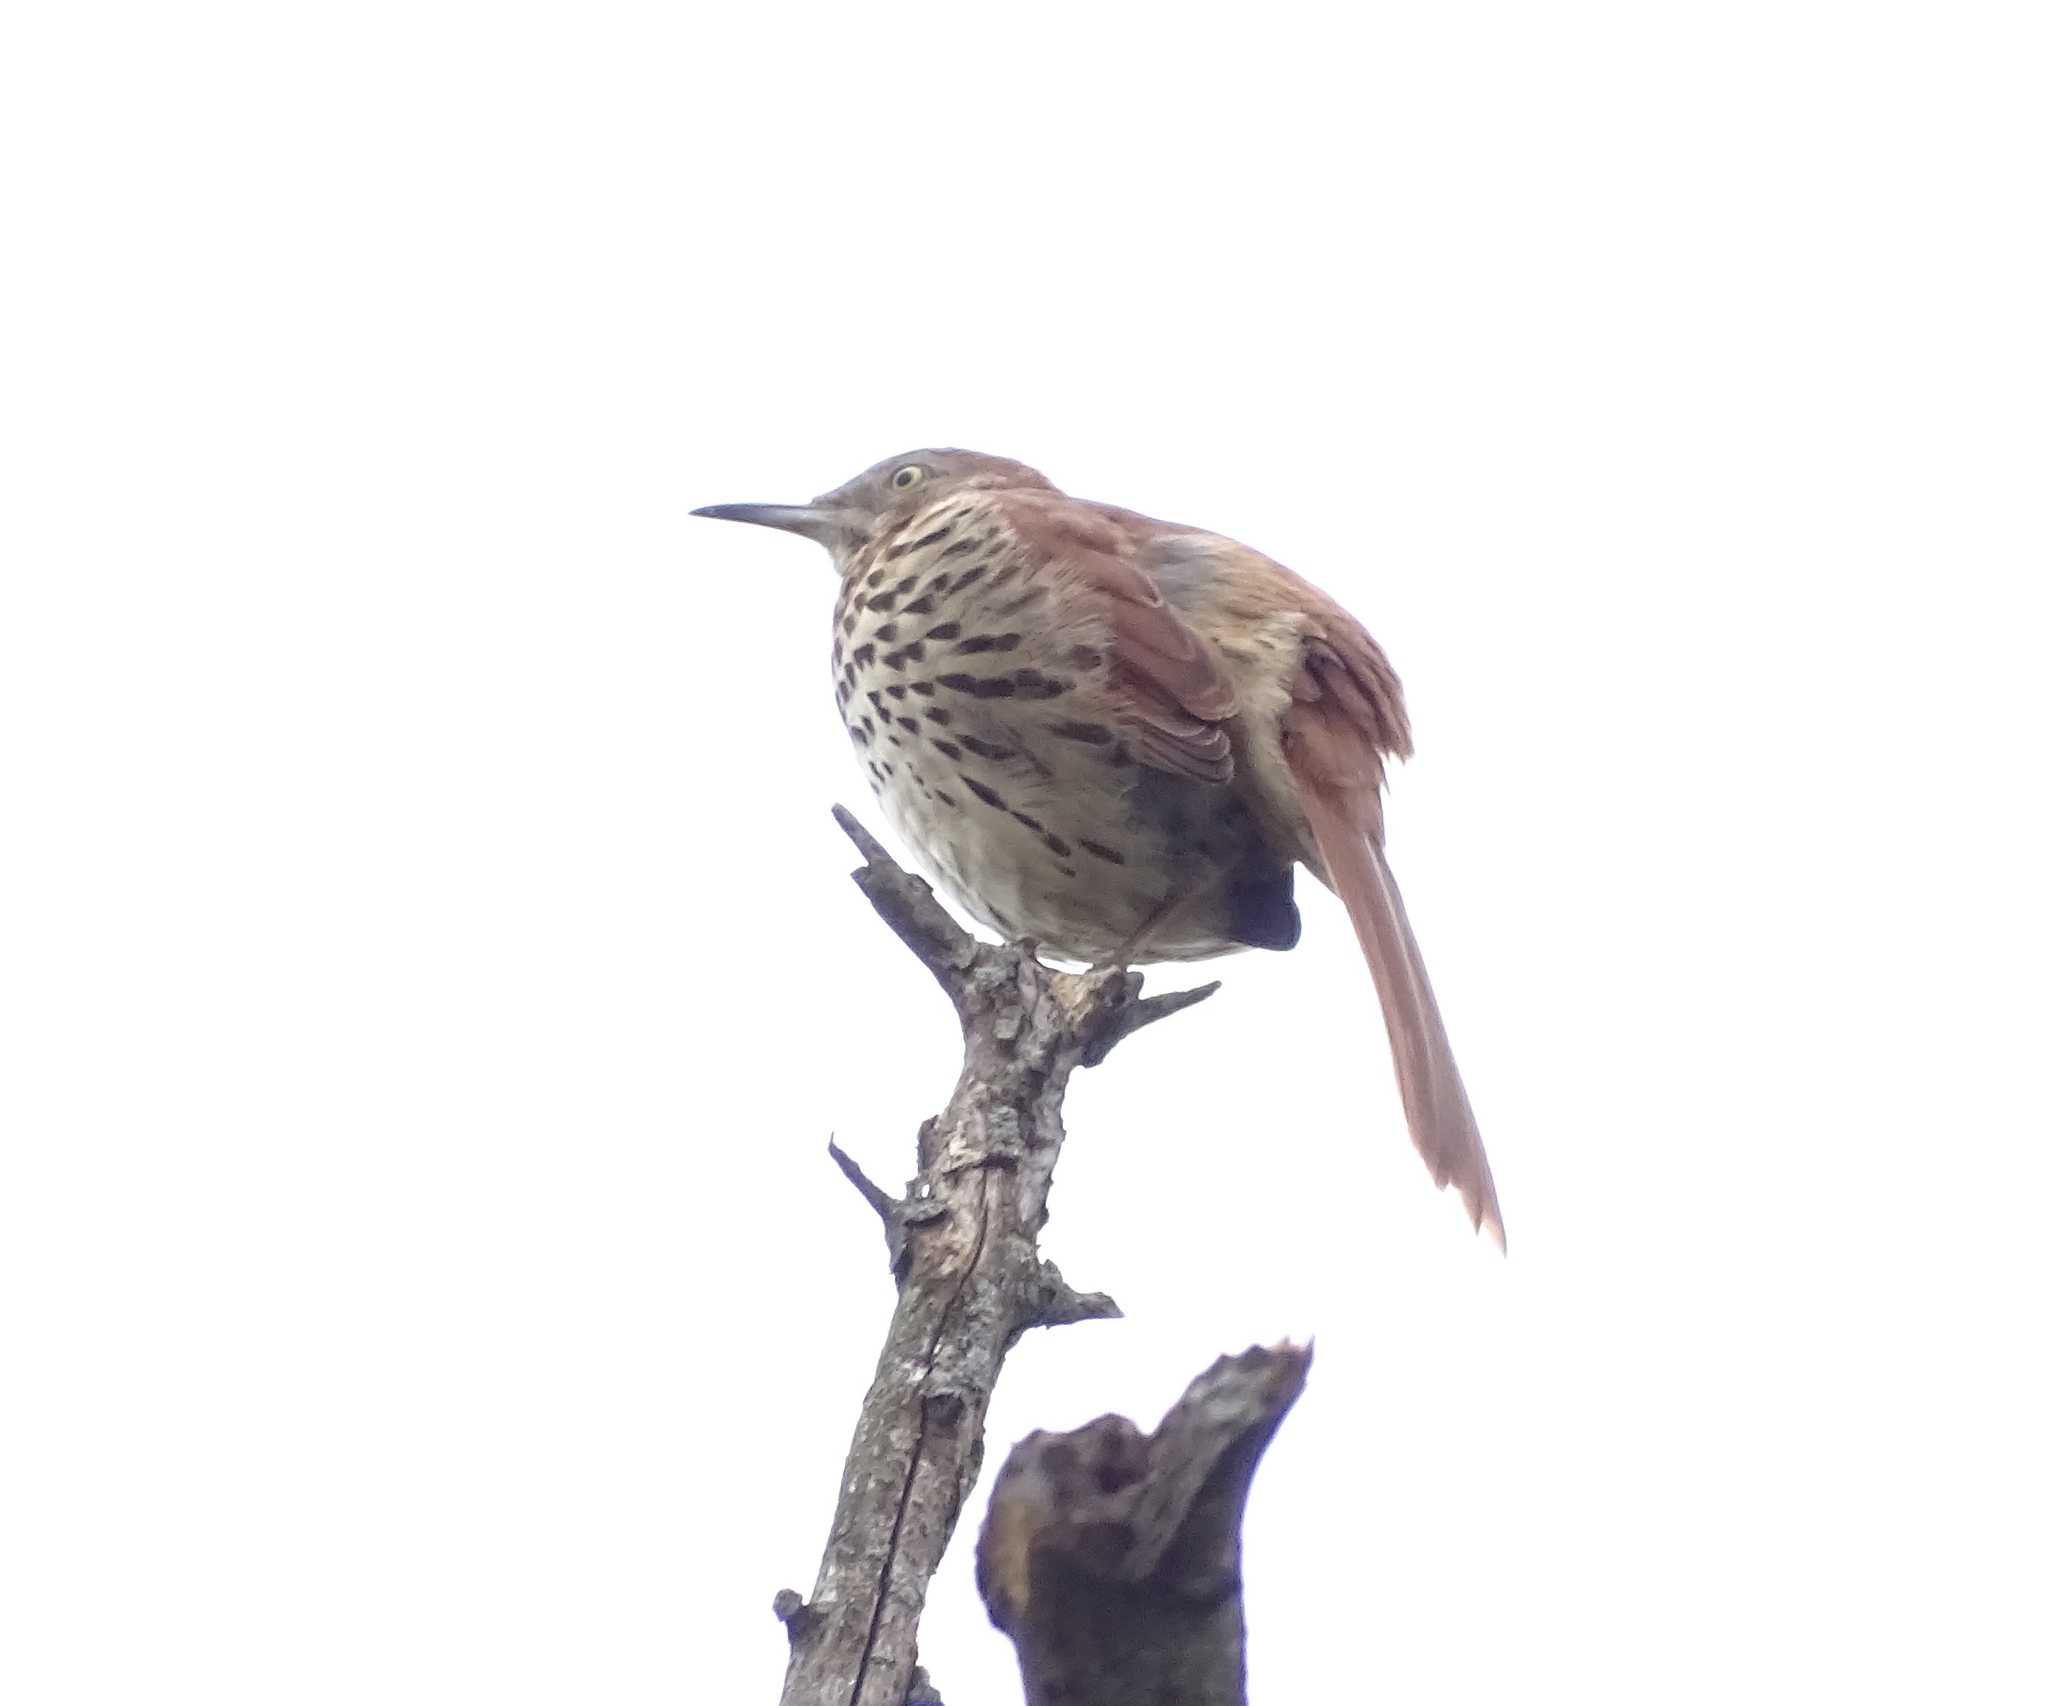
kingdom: Animalia
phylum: Chordata
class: Aves
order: Passeriformes
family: Mimidae
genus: Toxostoma
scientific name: Toxostoma rufum
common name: Brown thrasher
